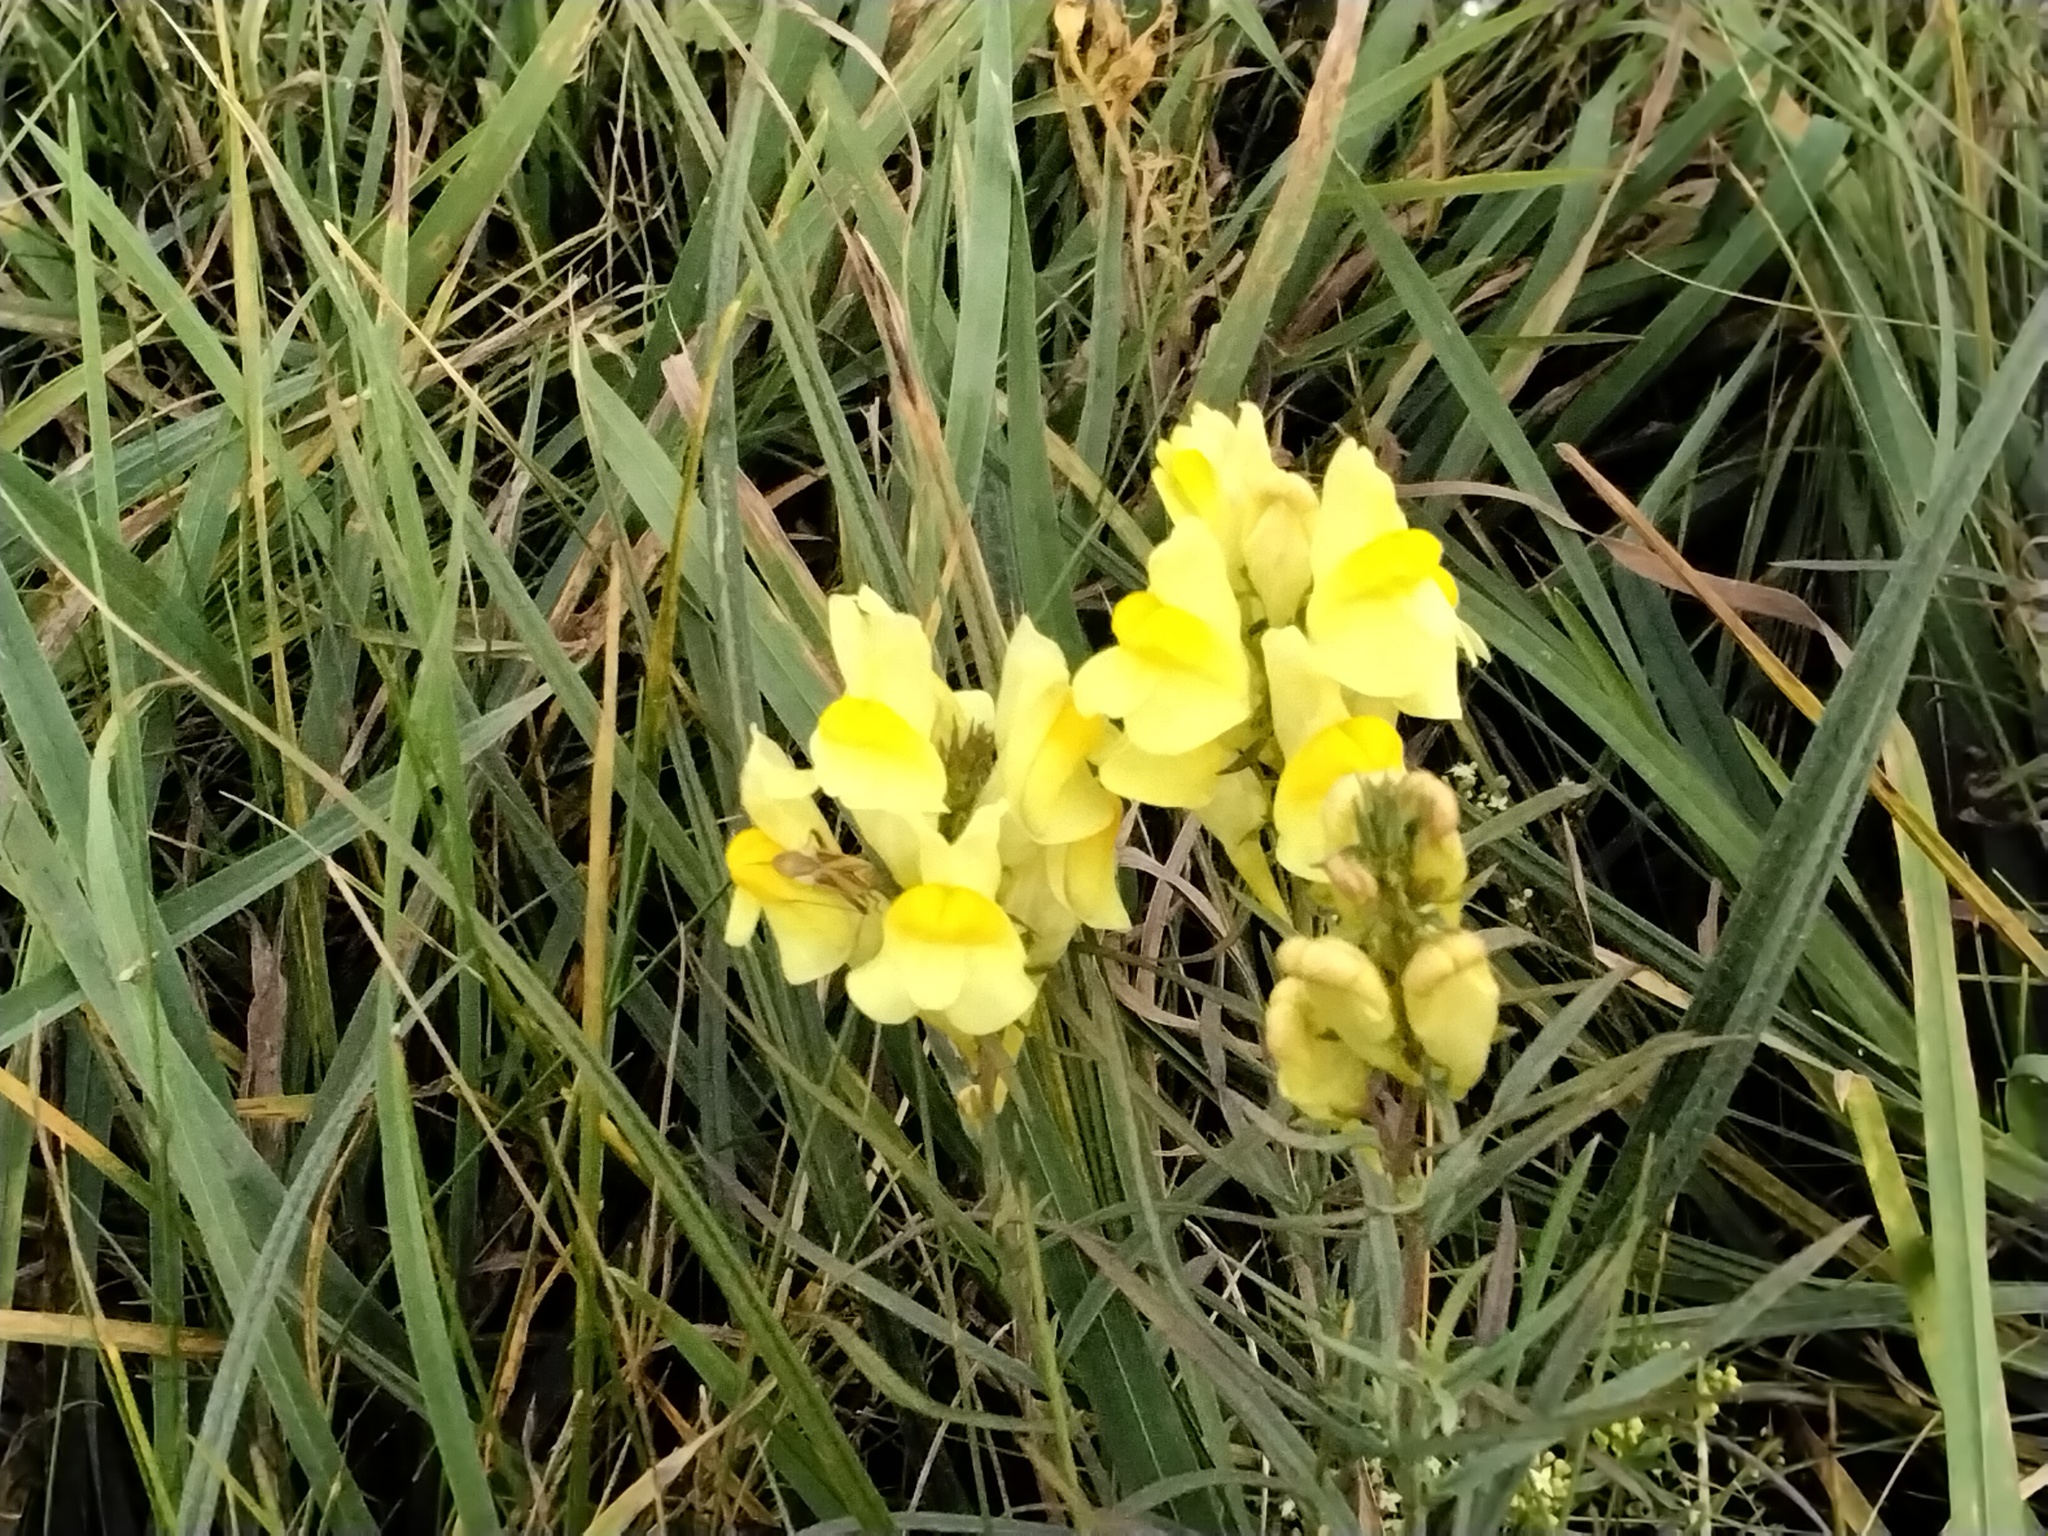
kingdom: Plantae
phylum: Tracheophyta
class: Magnoliopsida
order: Lamiales
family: Plantaginaceae
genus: Linaria
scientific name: Linaria vulgaris
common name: Butter and eggs
